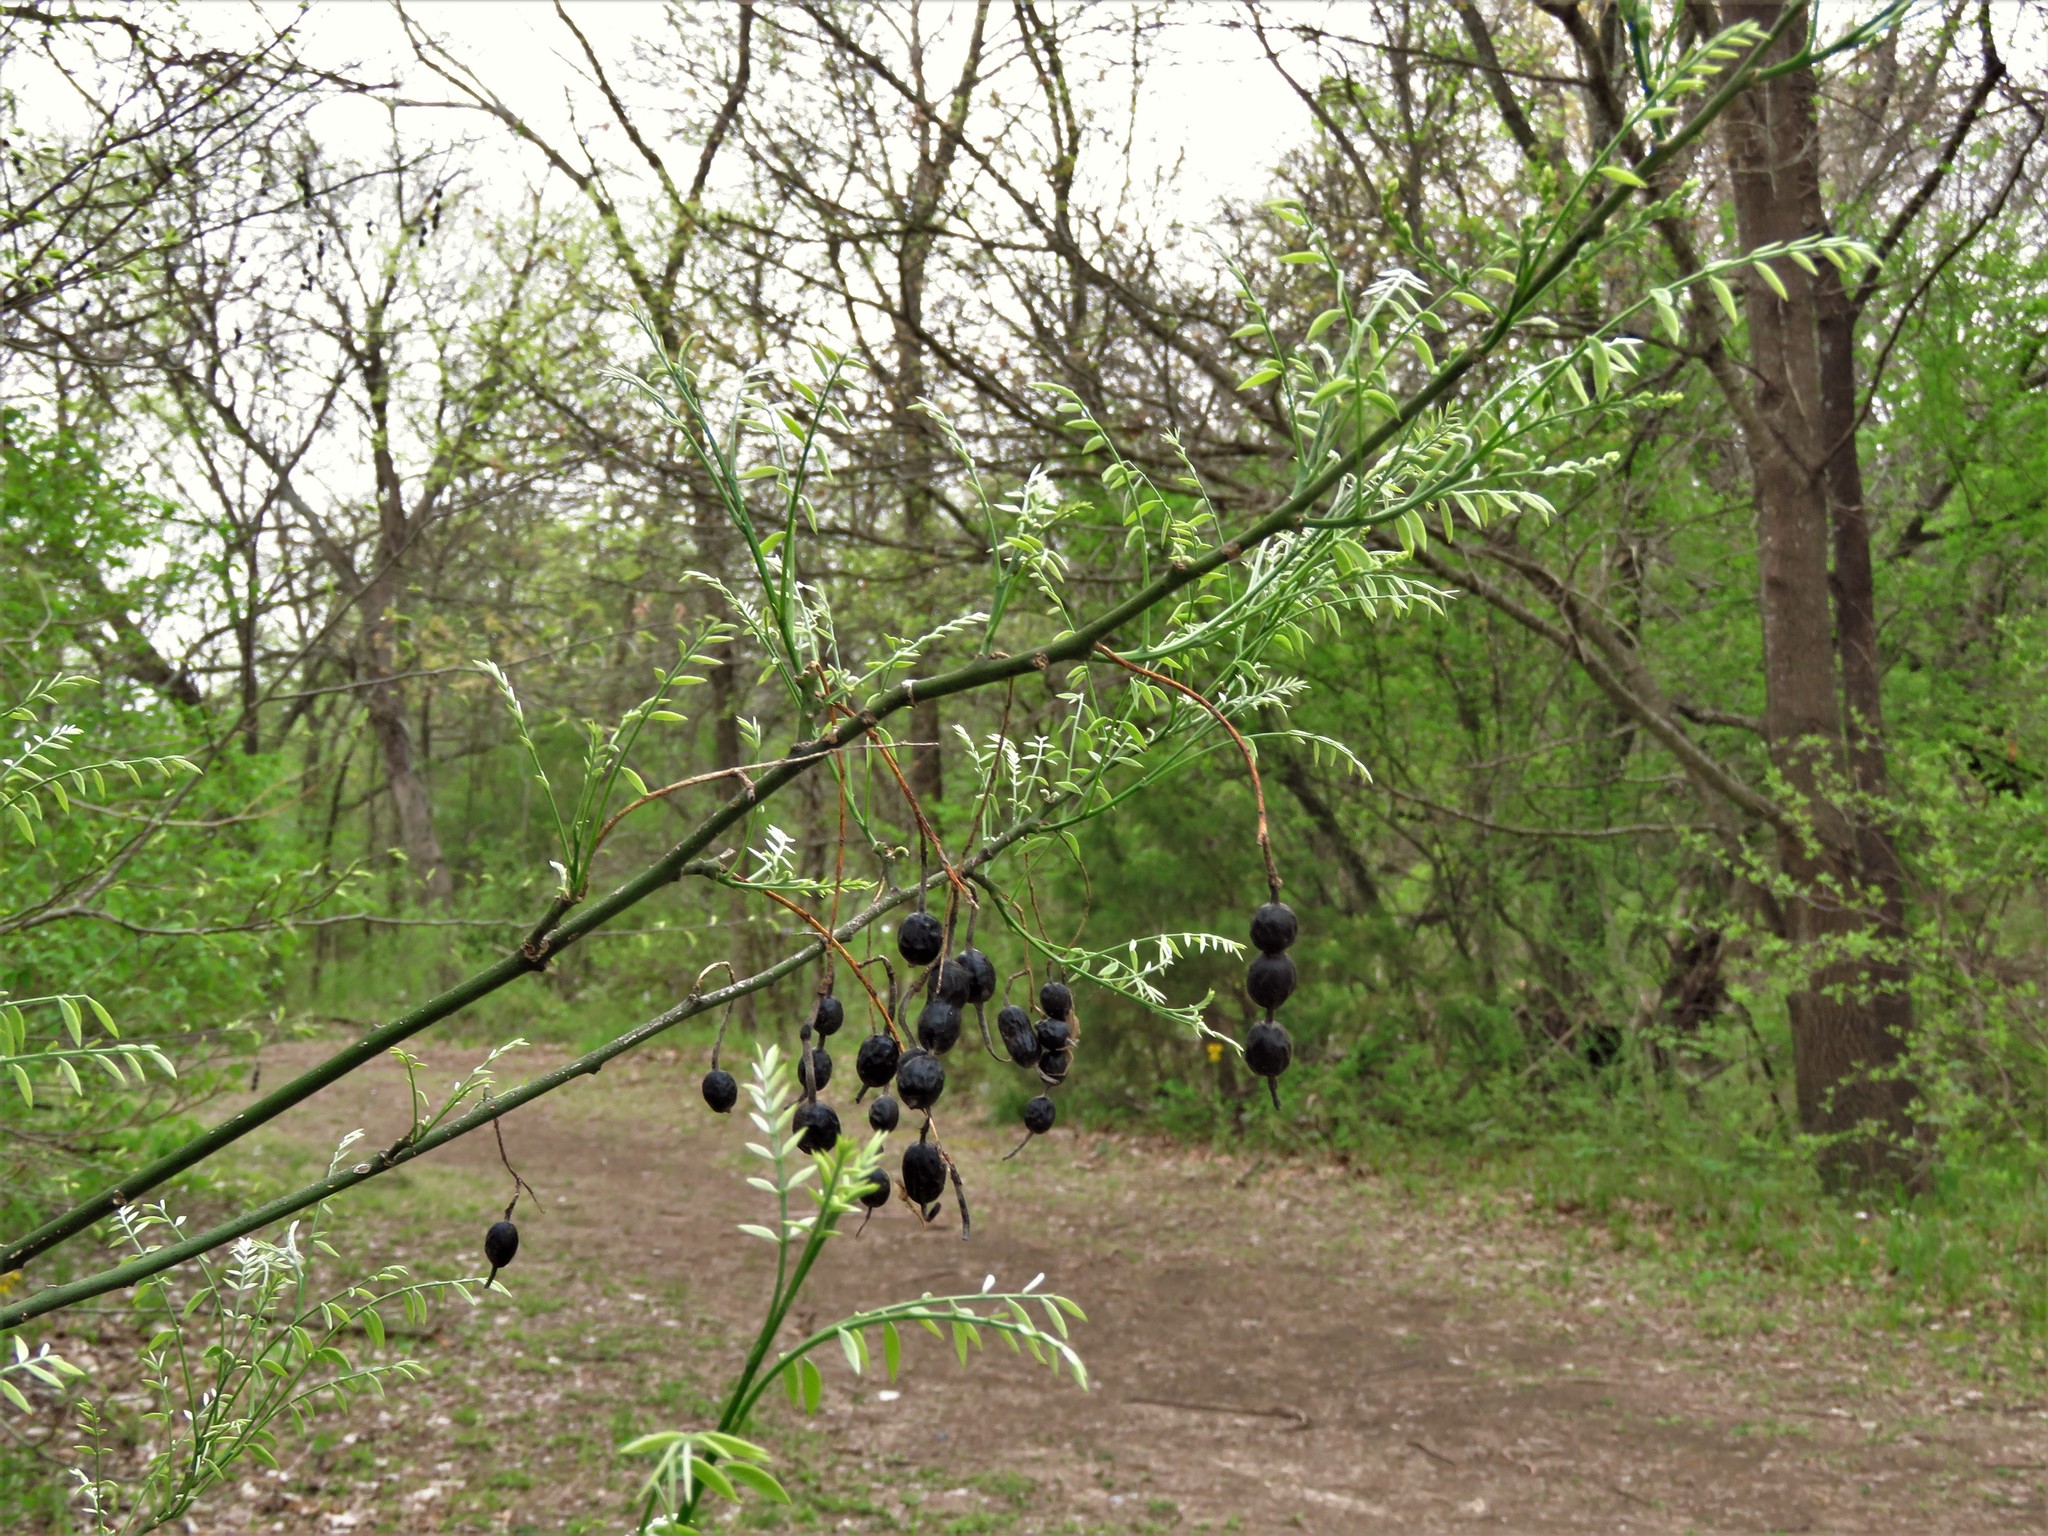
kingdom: Plantae
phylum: Tracheophyta
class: Magnoliopsida
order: Fabales
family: Fabaceae
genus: Styphnolobium
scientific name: Styphnolobium affine
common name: Texas sophora
